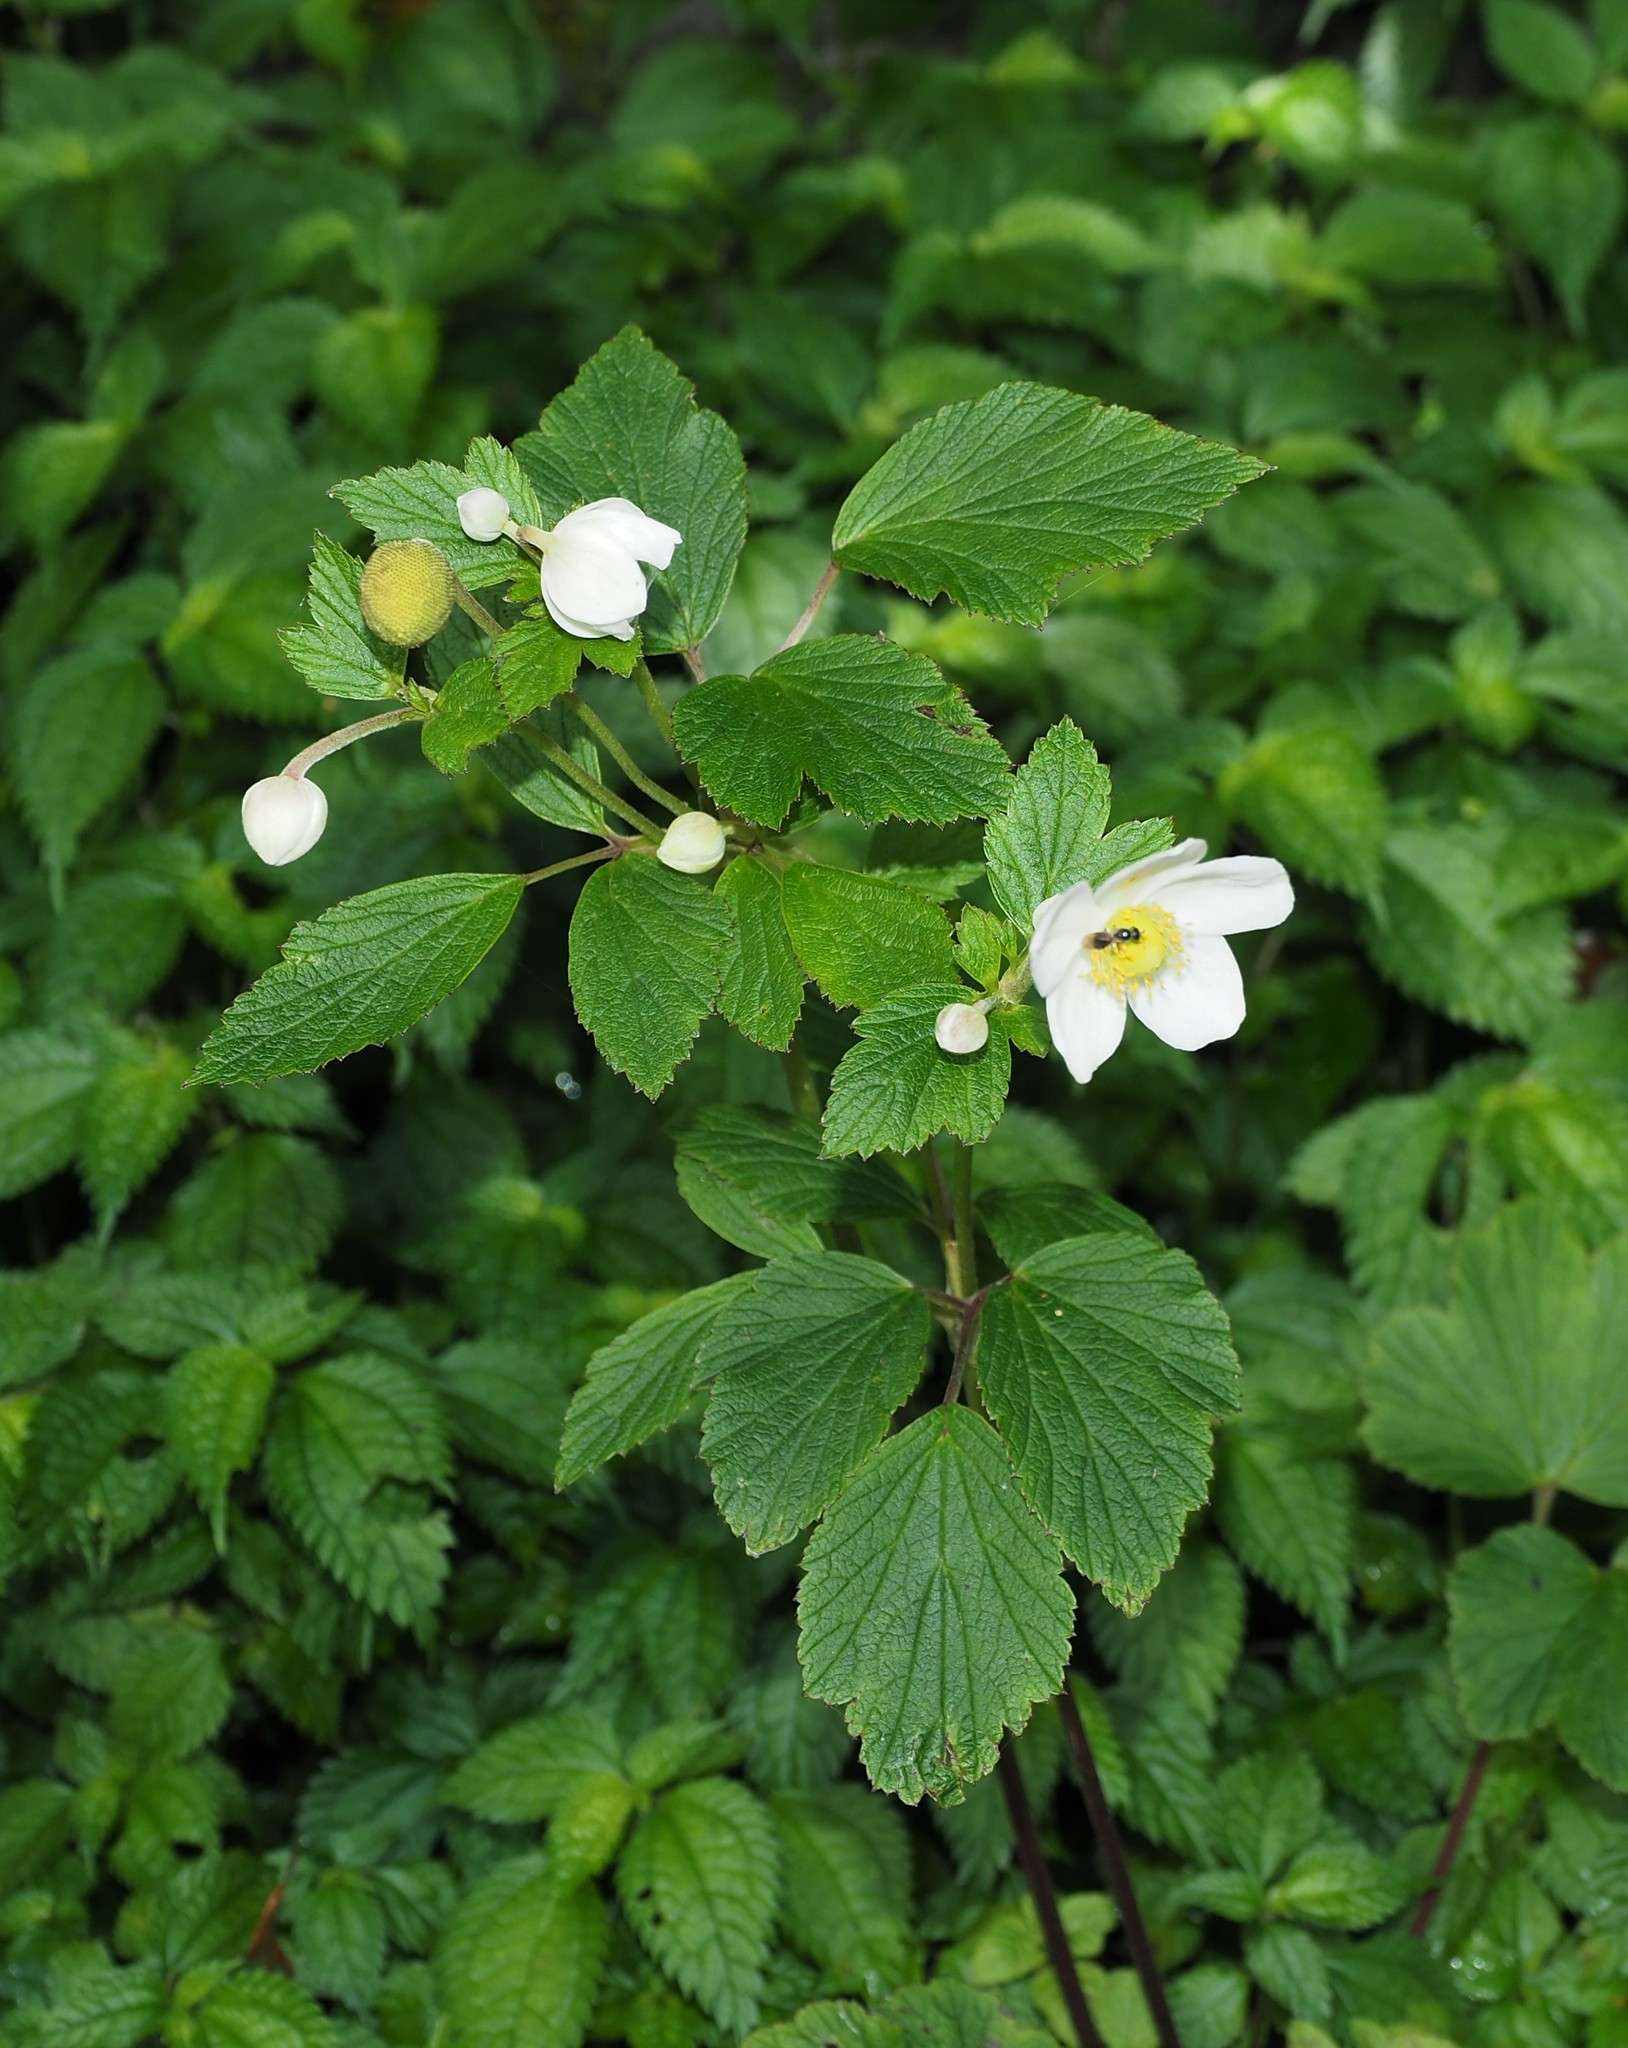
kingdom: Plantae
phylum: Tracheophyta
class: Magnoliopsida
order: Ranunculales
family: Ranunculaceae
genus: Eriocapitella
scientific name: Eriocapitella vitifolia
